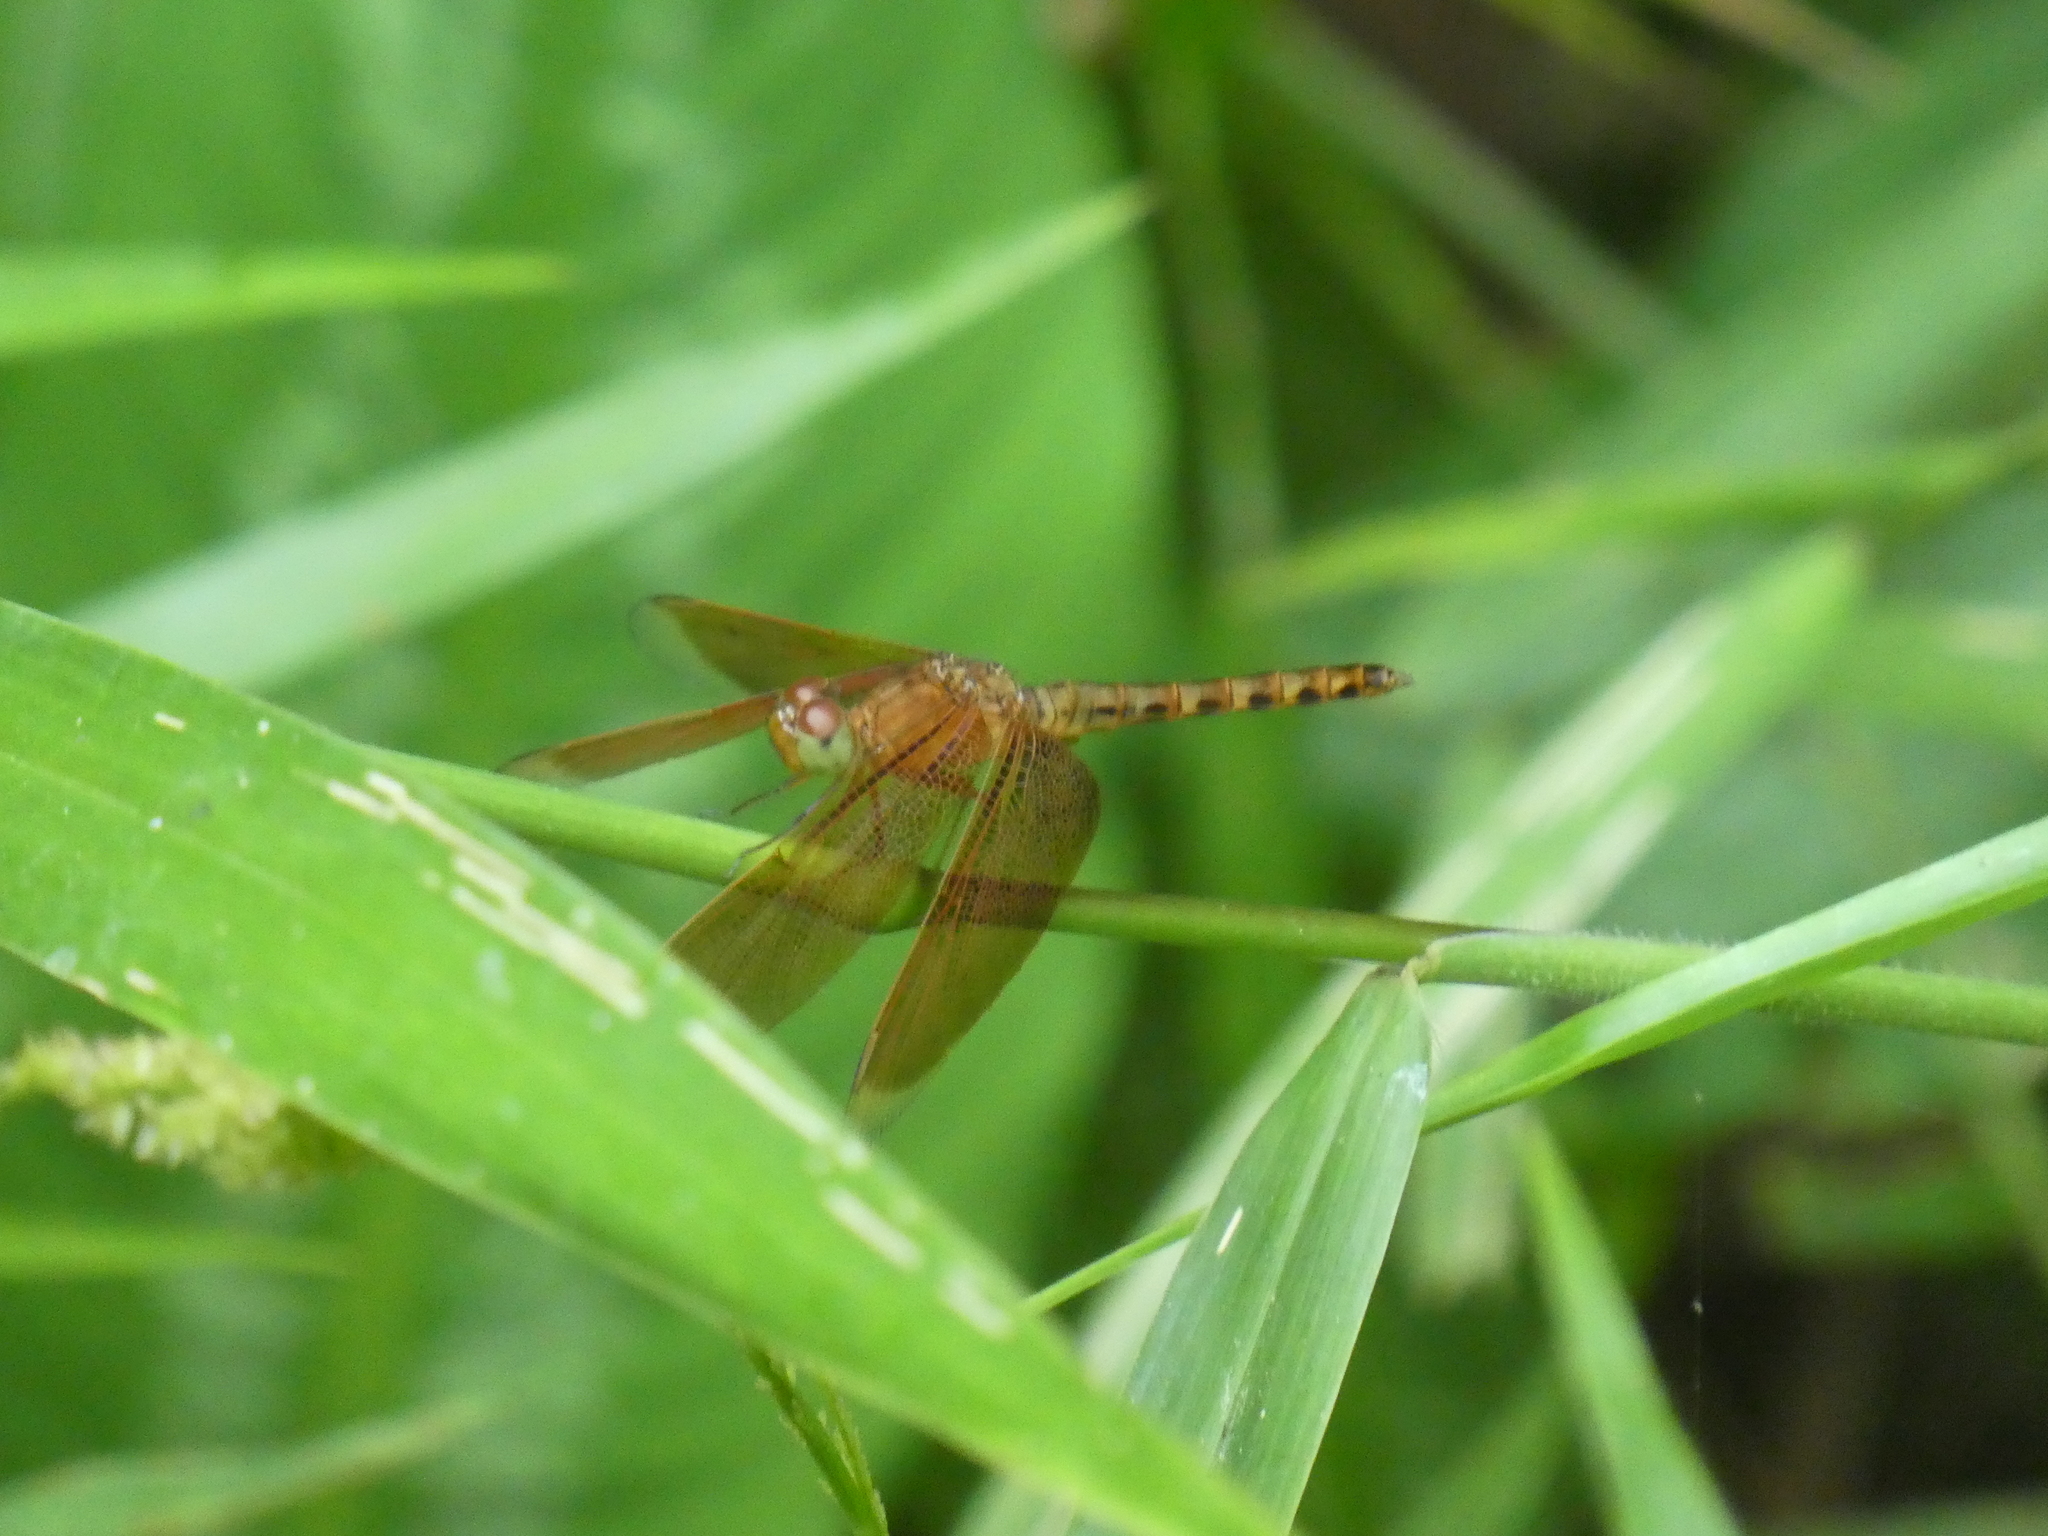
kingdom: Animalia
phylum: Arthropoda
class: Insecta
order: Odonata
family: Libellulidae
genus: Neurothemis
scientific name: Neurothemis fluctuans
